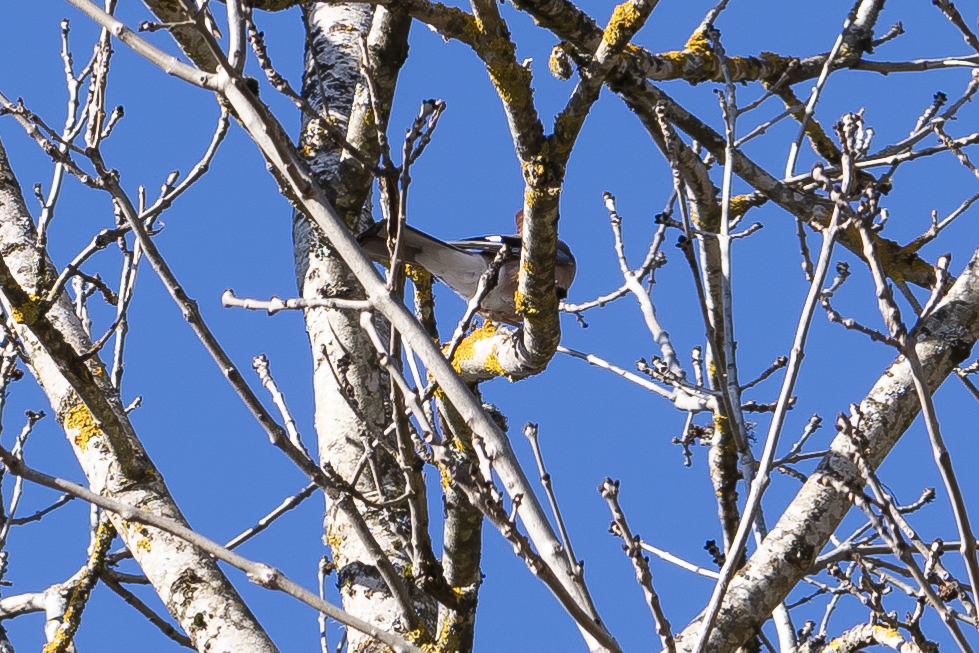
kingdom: Animalia
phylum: Chordata
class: Aves
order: Passeriformes
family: Corvidae
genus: Garrulus
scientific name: Garrulus glandarius
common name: Eurasian jay
